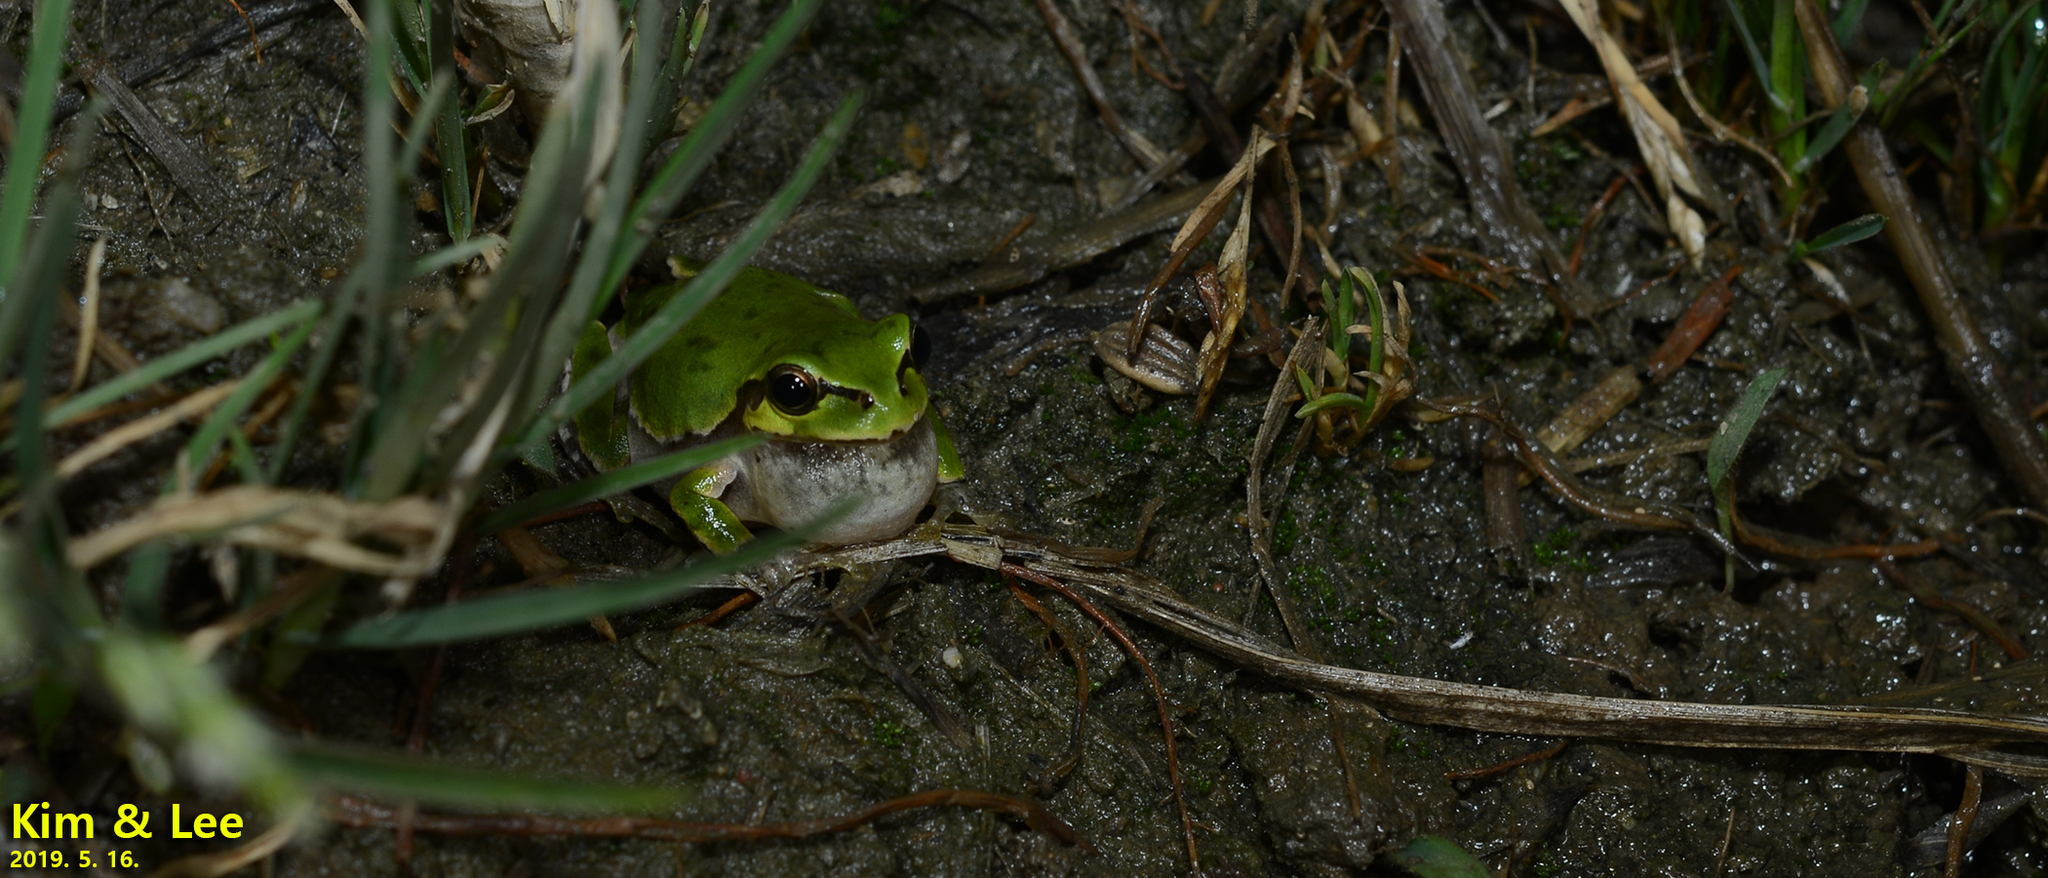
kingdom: Animalia
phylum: Chordata
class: Amphibia
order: Anura
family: Hylidae
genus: Dryophytes
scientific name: Dryophytes japonicus
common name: Japanese treefrog
